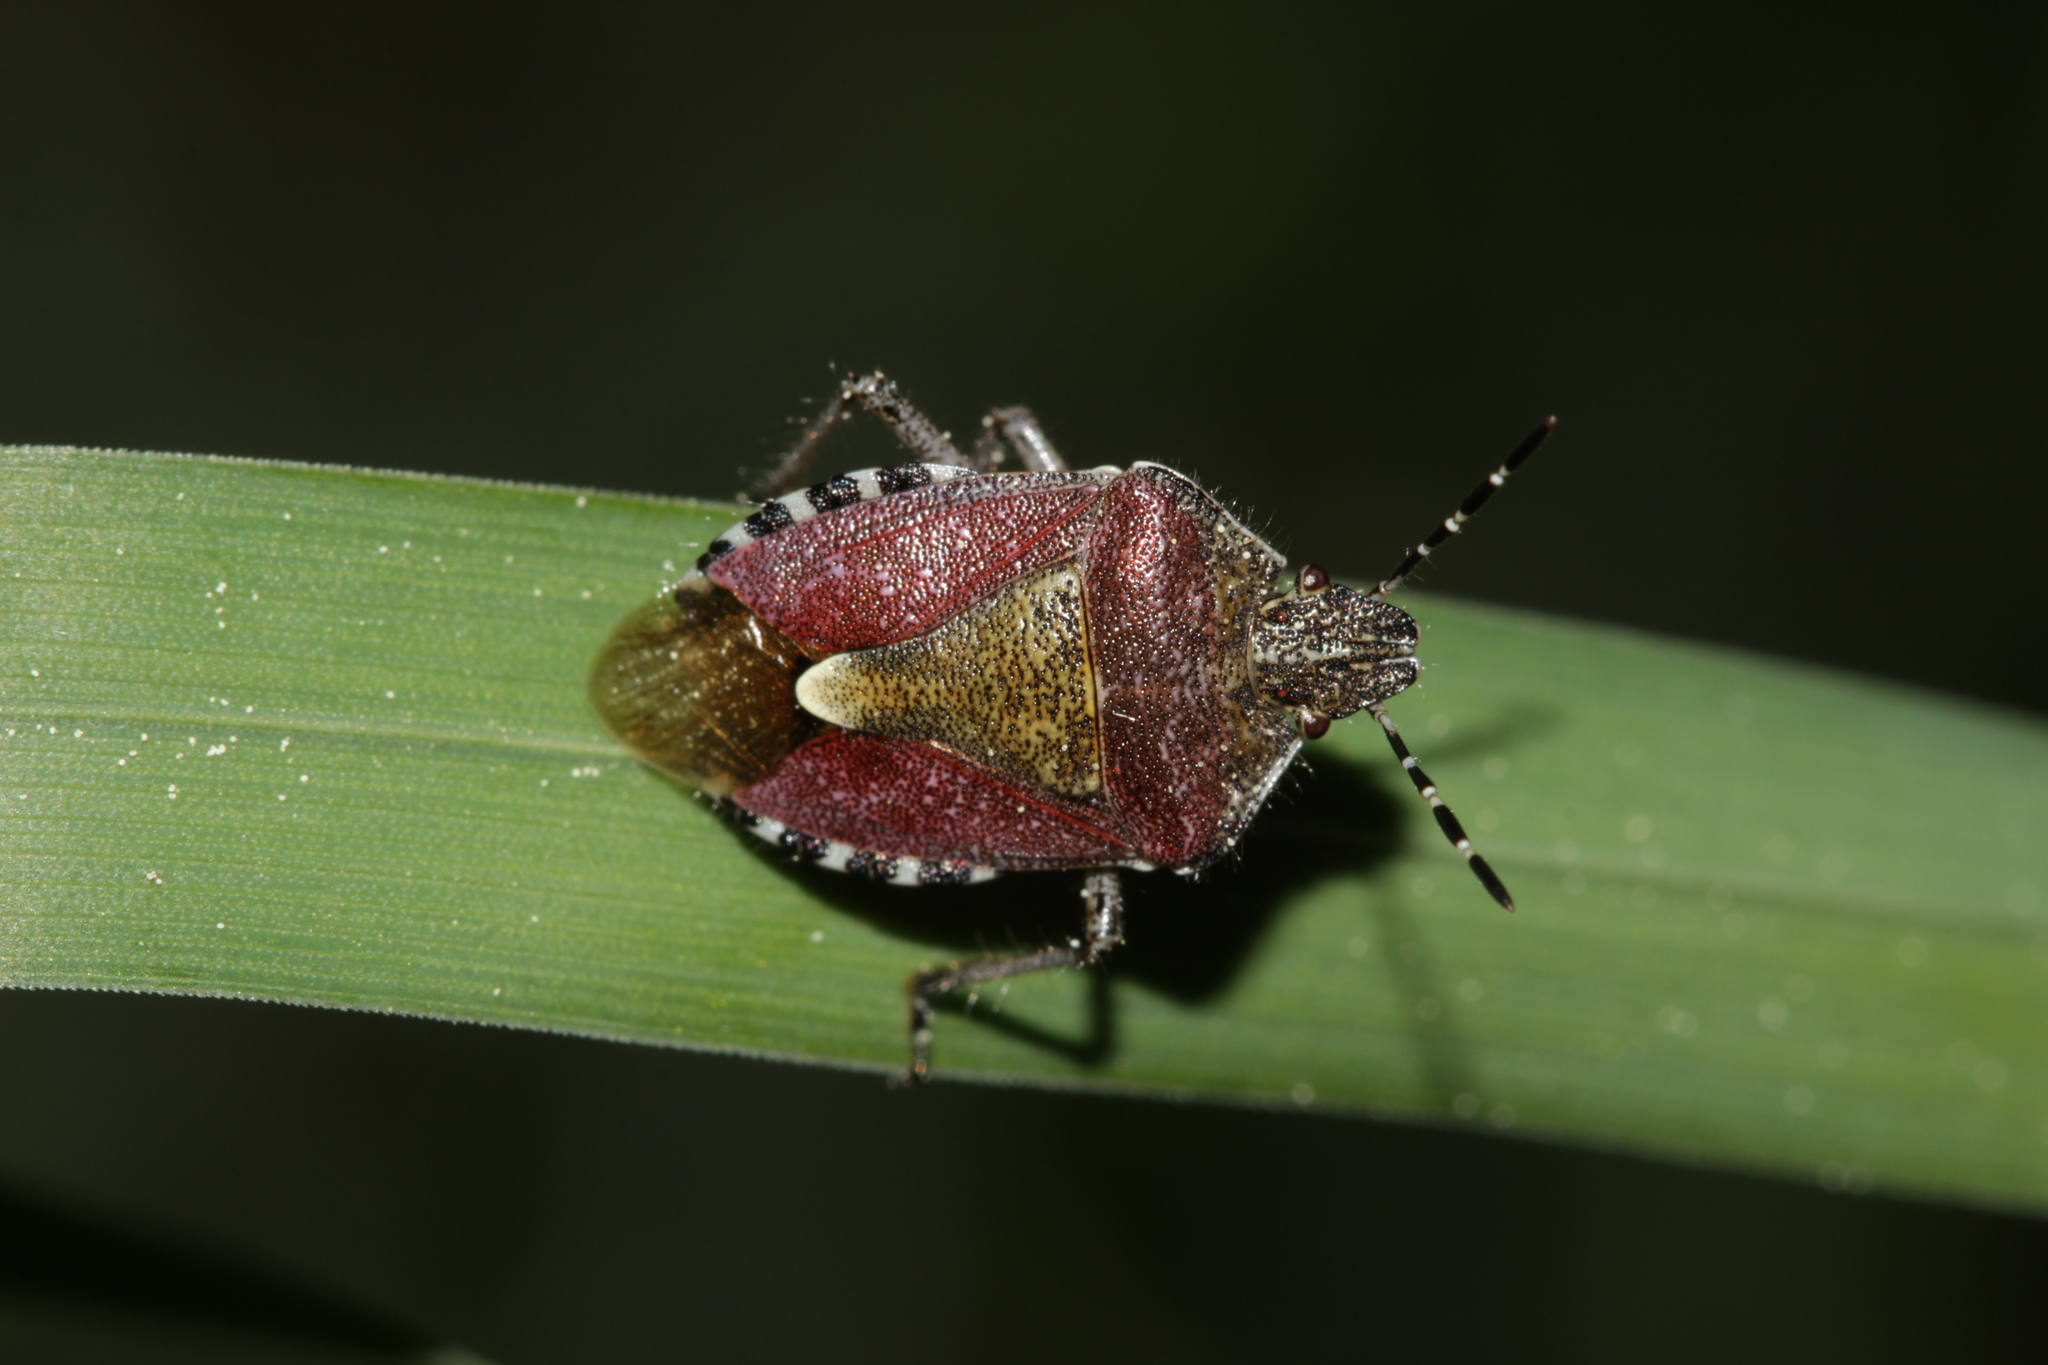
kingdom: Animalia
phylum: Arthropoda
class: Insecta
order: Hemiptera
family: Pentatomidae
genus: Dolycoris
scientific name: Dolycoris baccarum
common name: Sloe bug
